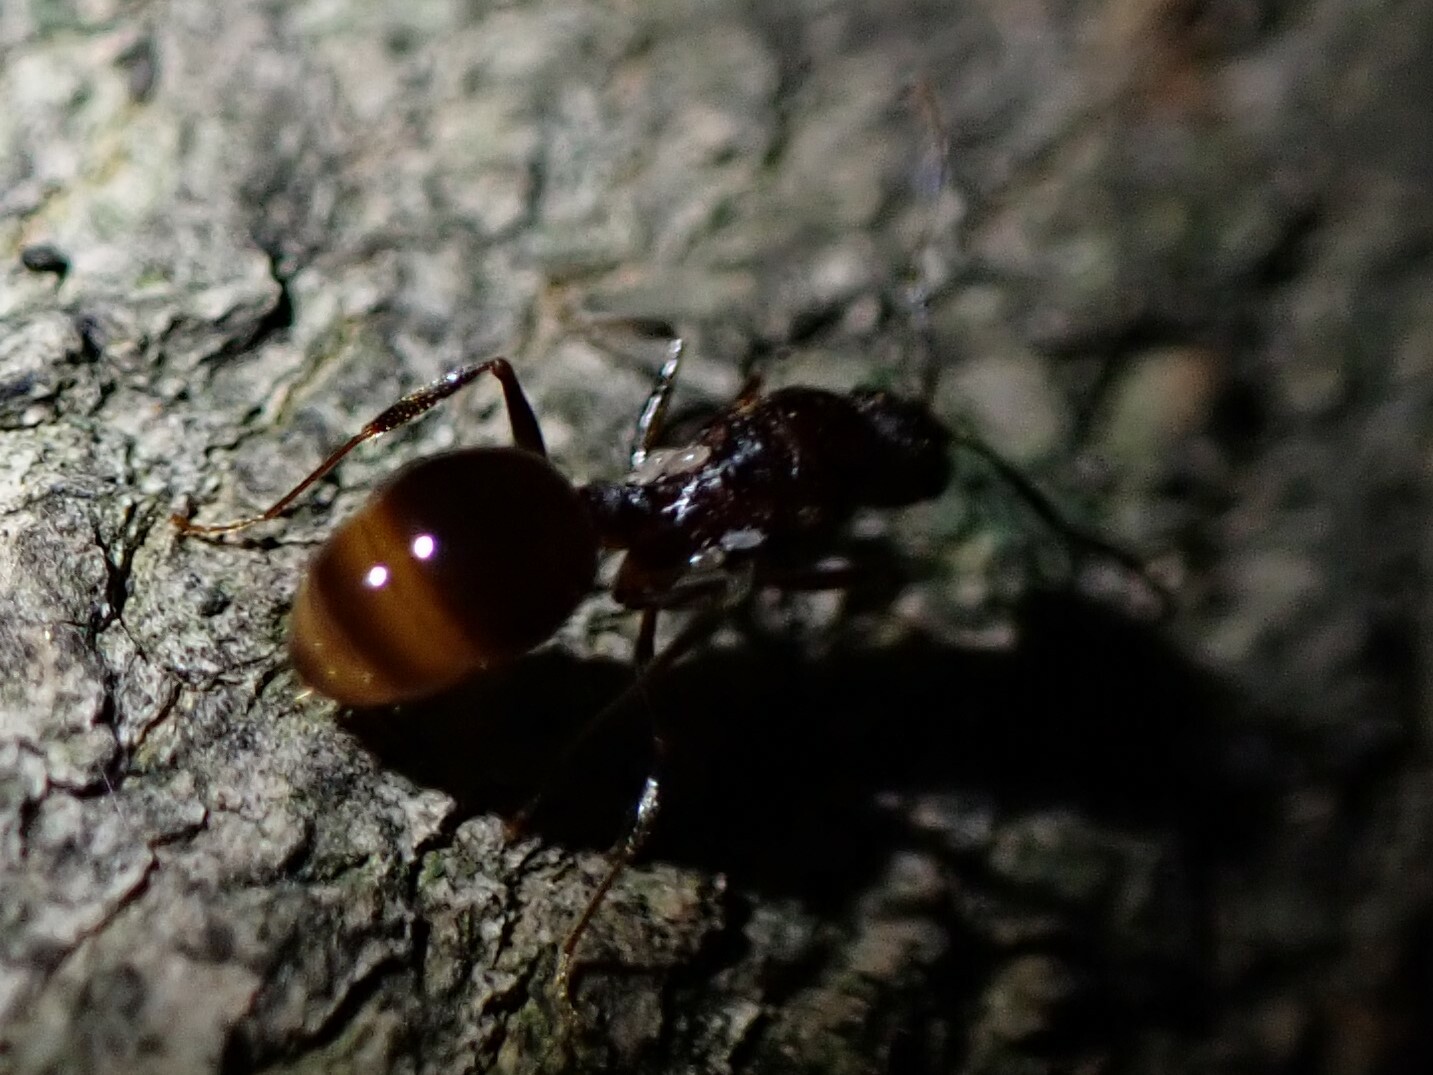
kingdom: Animalia
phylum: Arthropoda
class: Insecta
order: Hymenoptera
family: Formicidae
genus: Aphaenogaster
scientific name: Aphaenogaster
